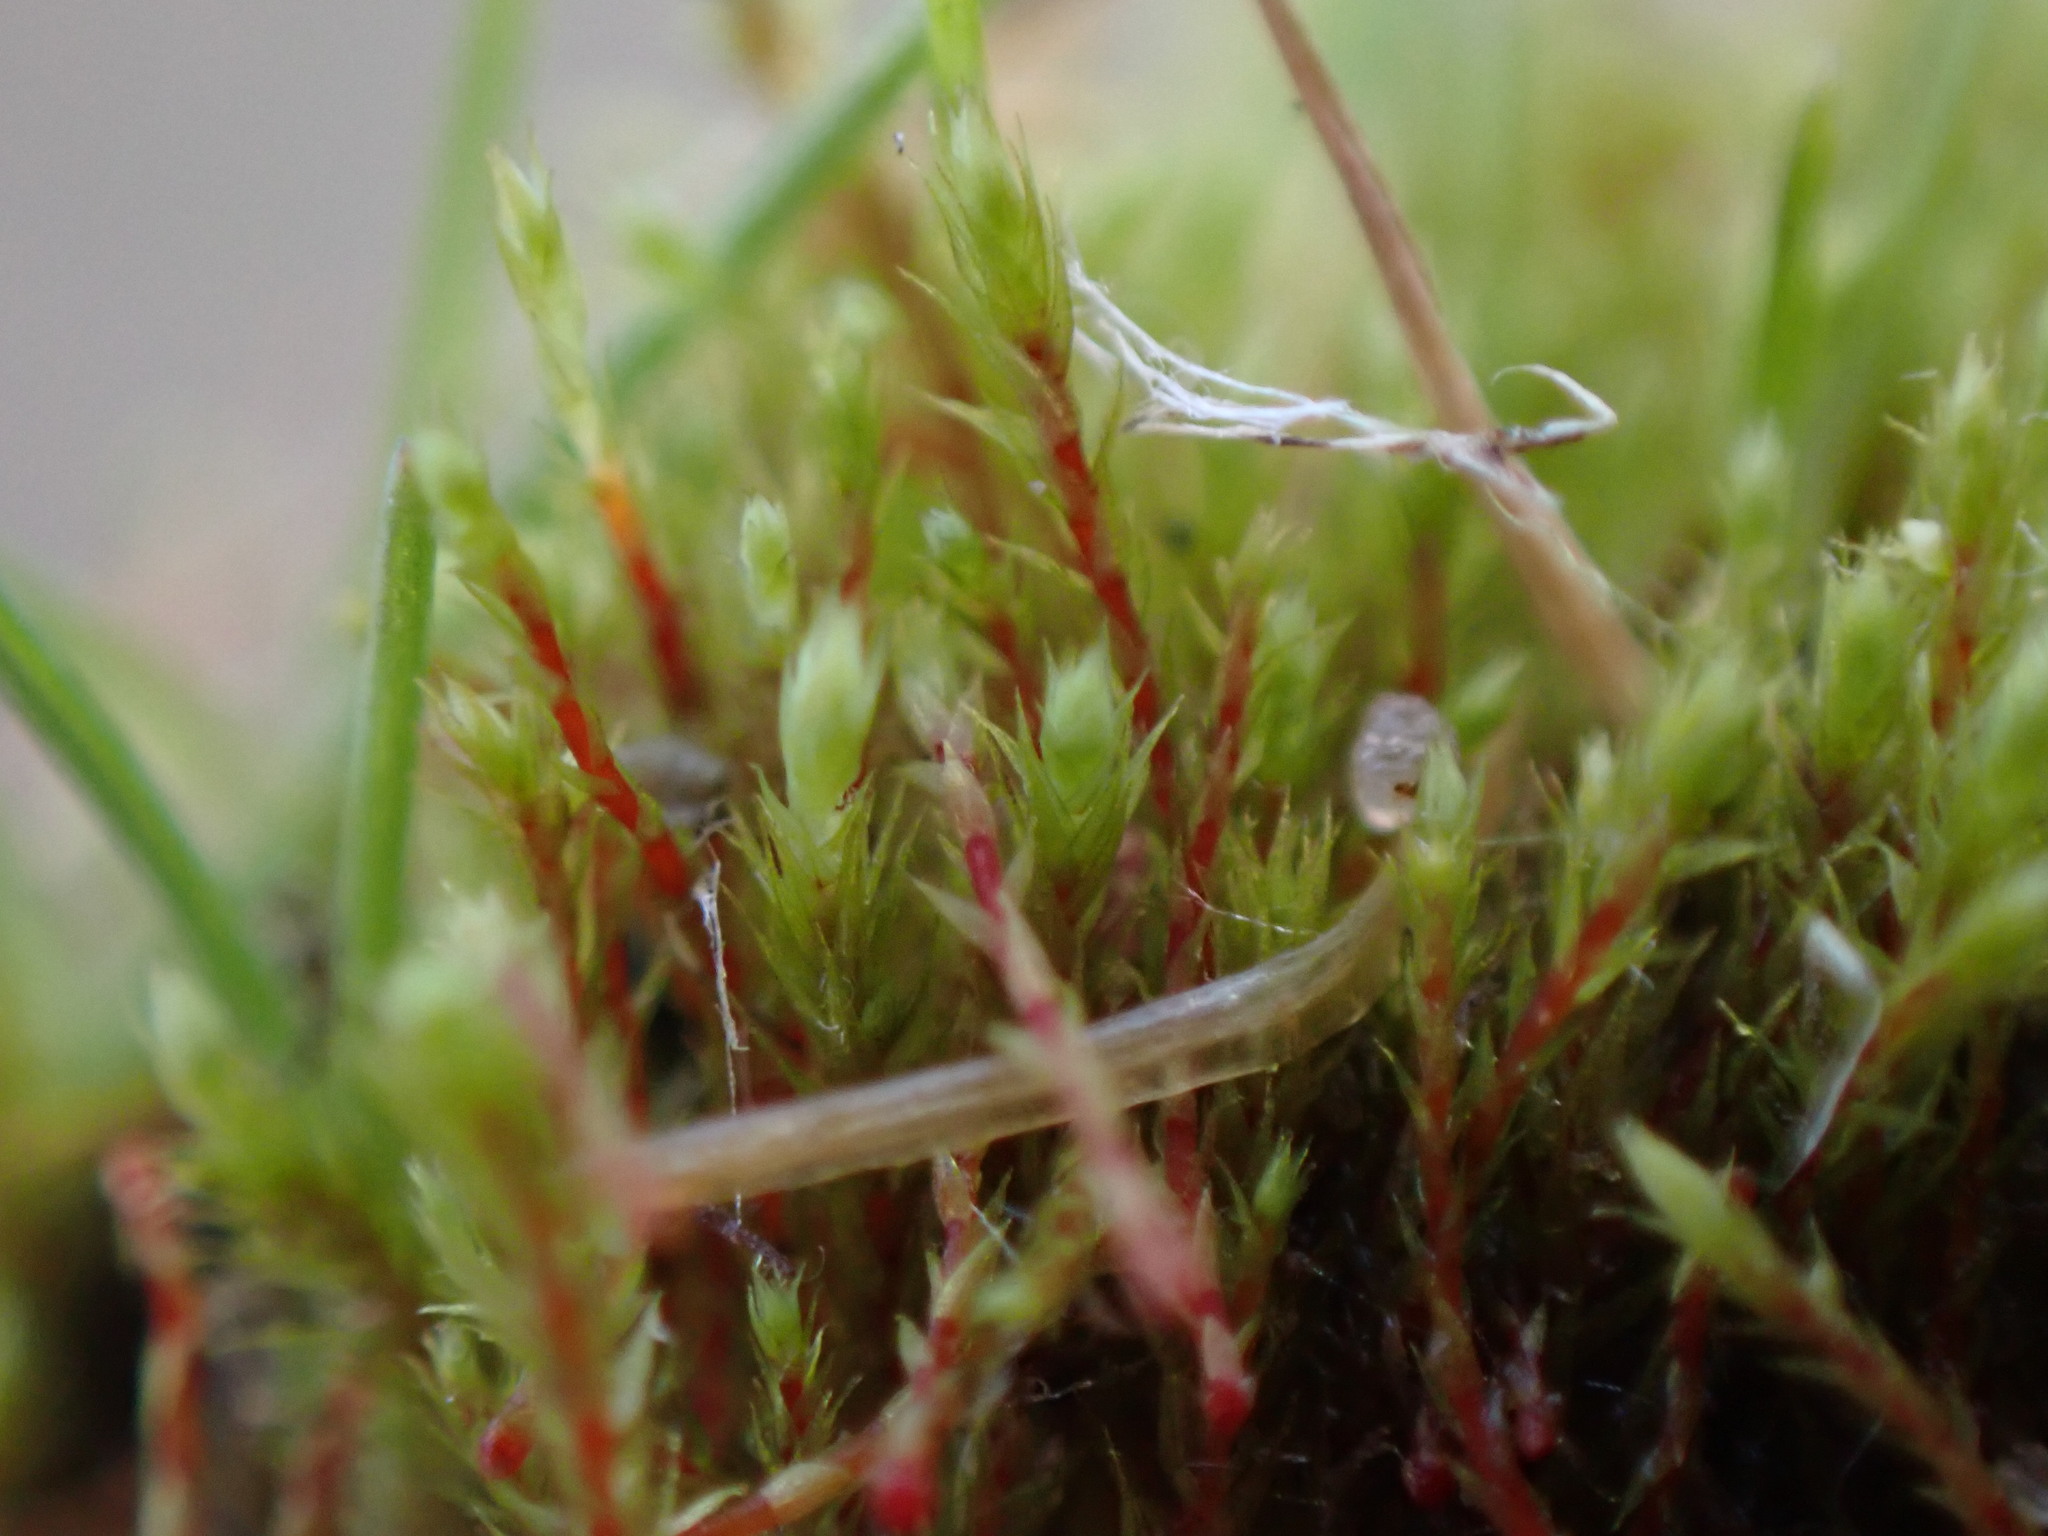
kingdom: Plantae
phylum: Bryophyta
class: Bryopsida
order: Bartramiales
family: Bartramiaceae
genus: Philonotis
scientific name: Philonotis capillaris
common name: Arnell's apple-moss
